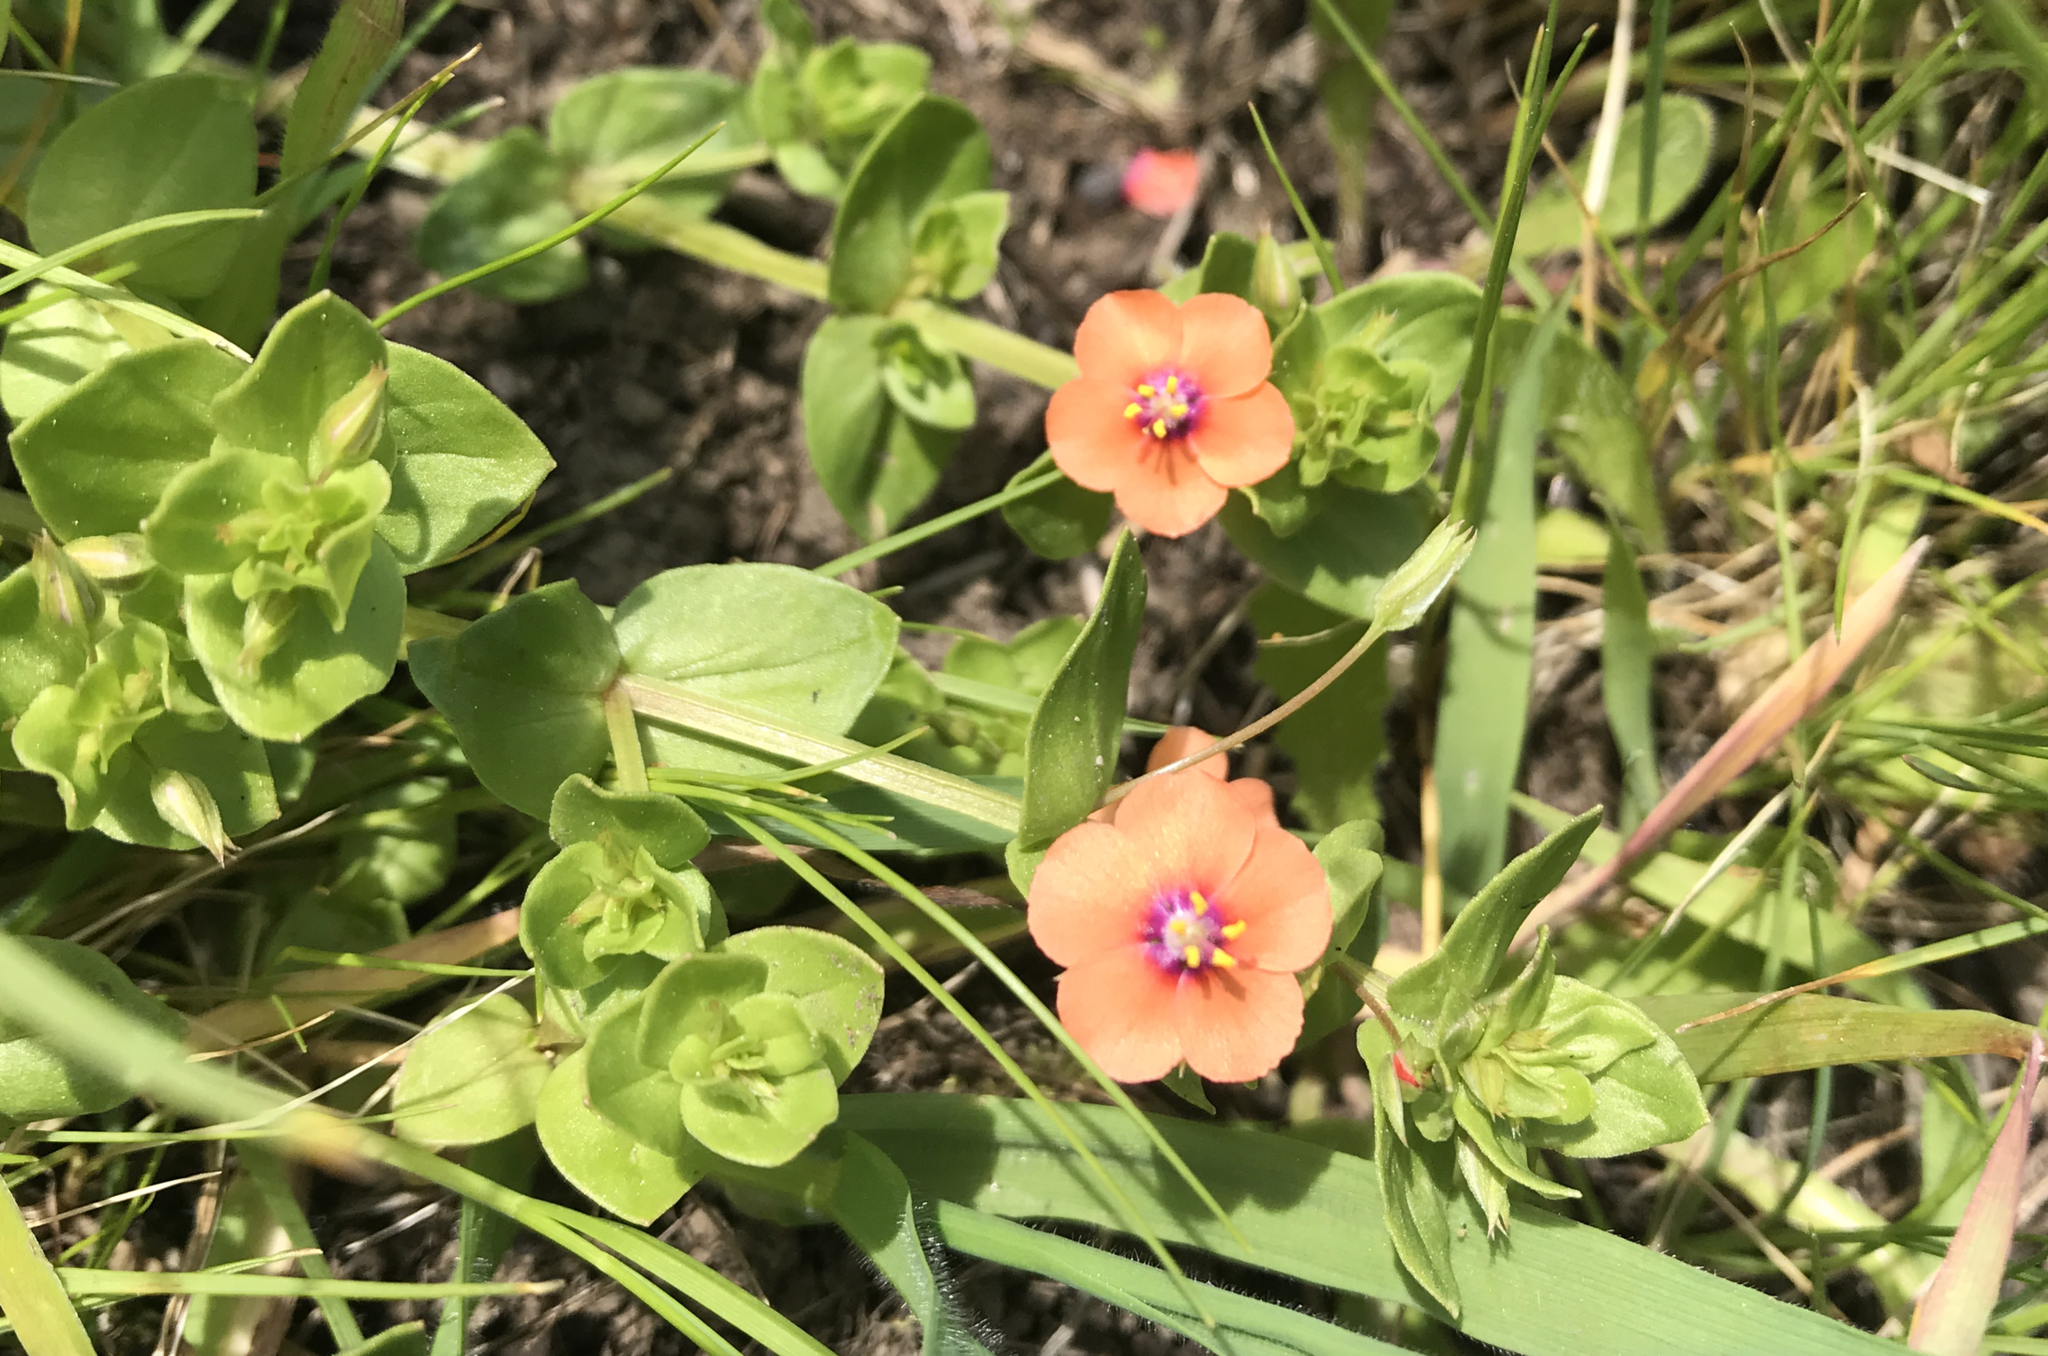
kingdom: Plantae
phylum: Tracheophyta
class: Magnoliopsida
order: Ericales
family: Primulaceae
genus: Lysimachia
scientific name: Lysimachia arvensis
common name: Scarlet pimpernel
